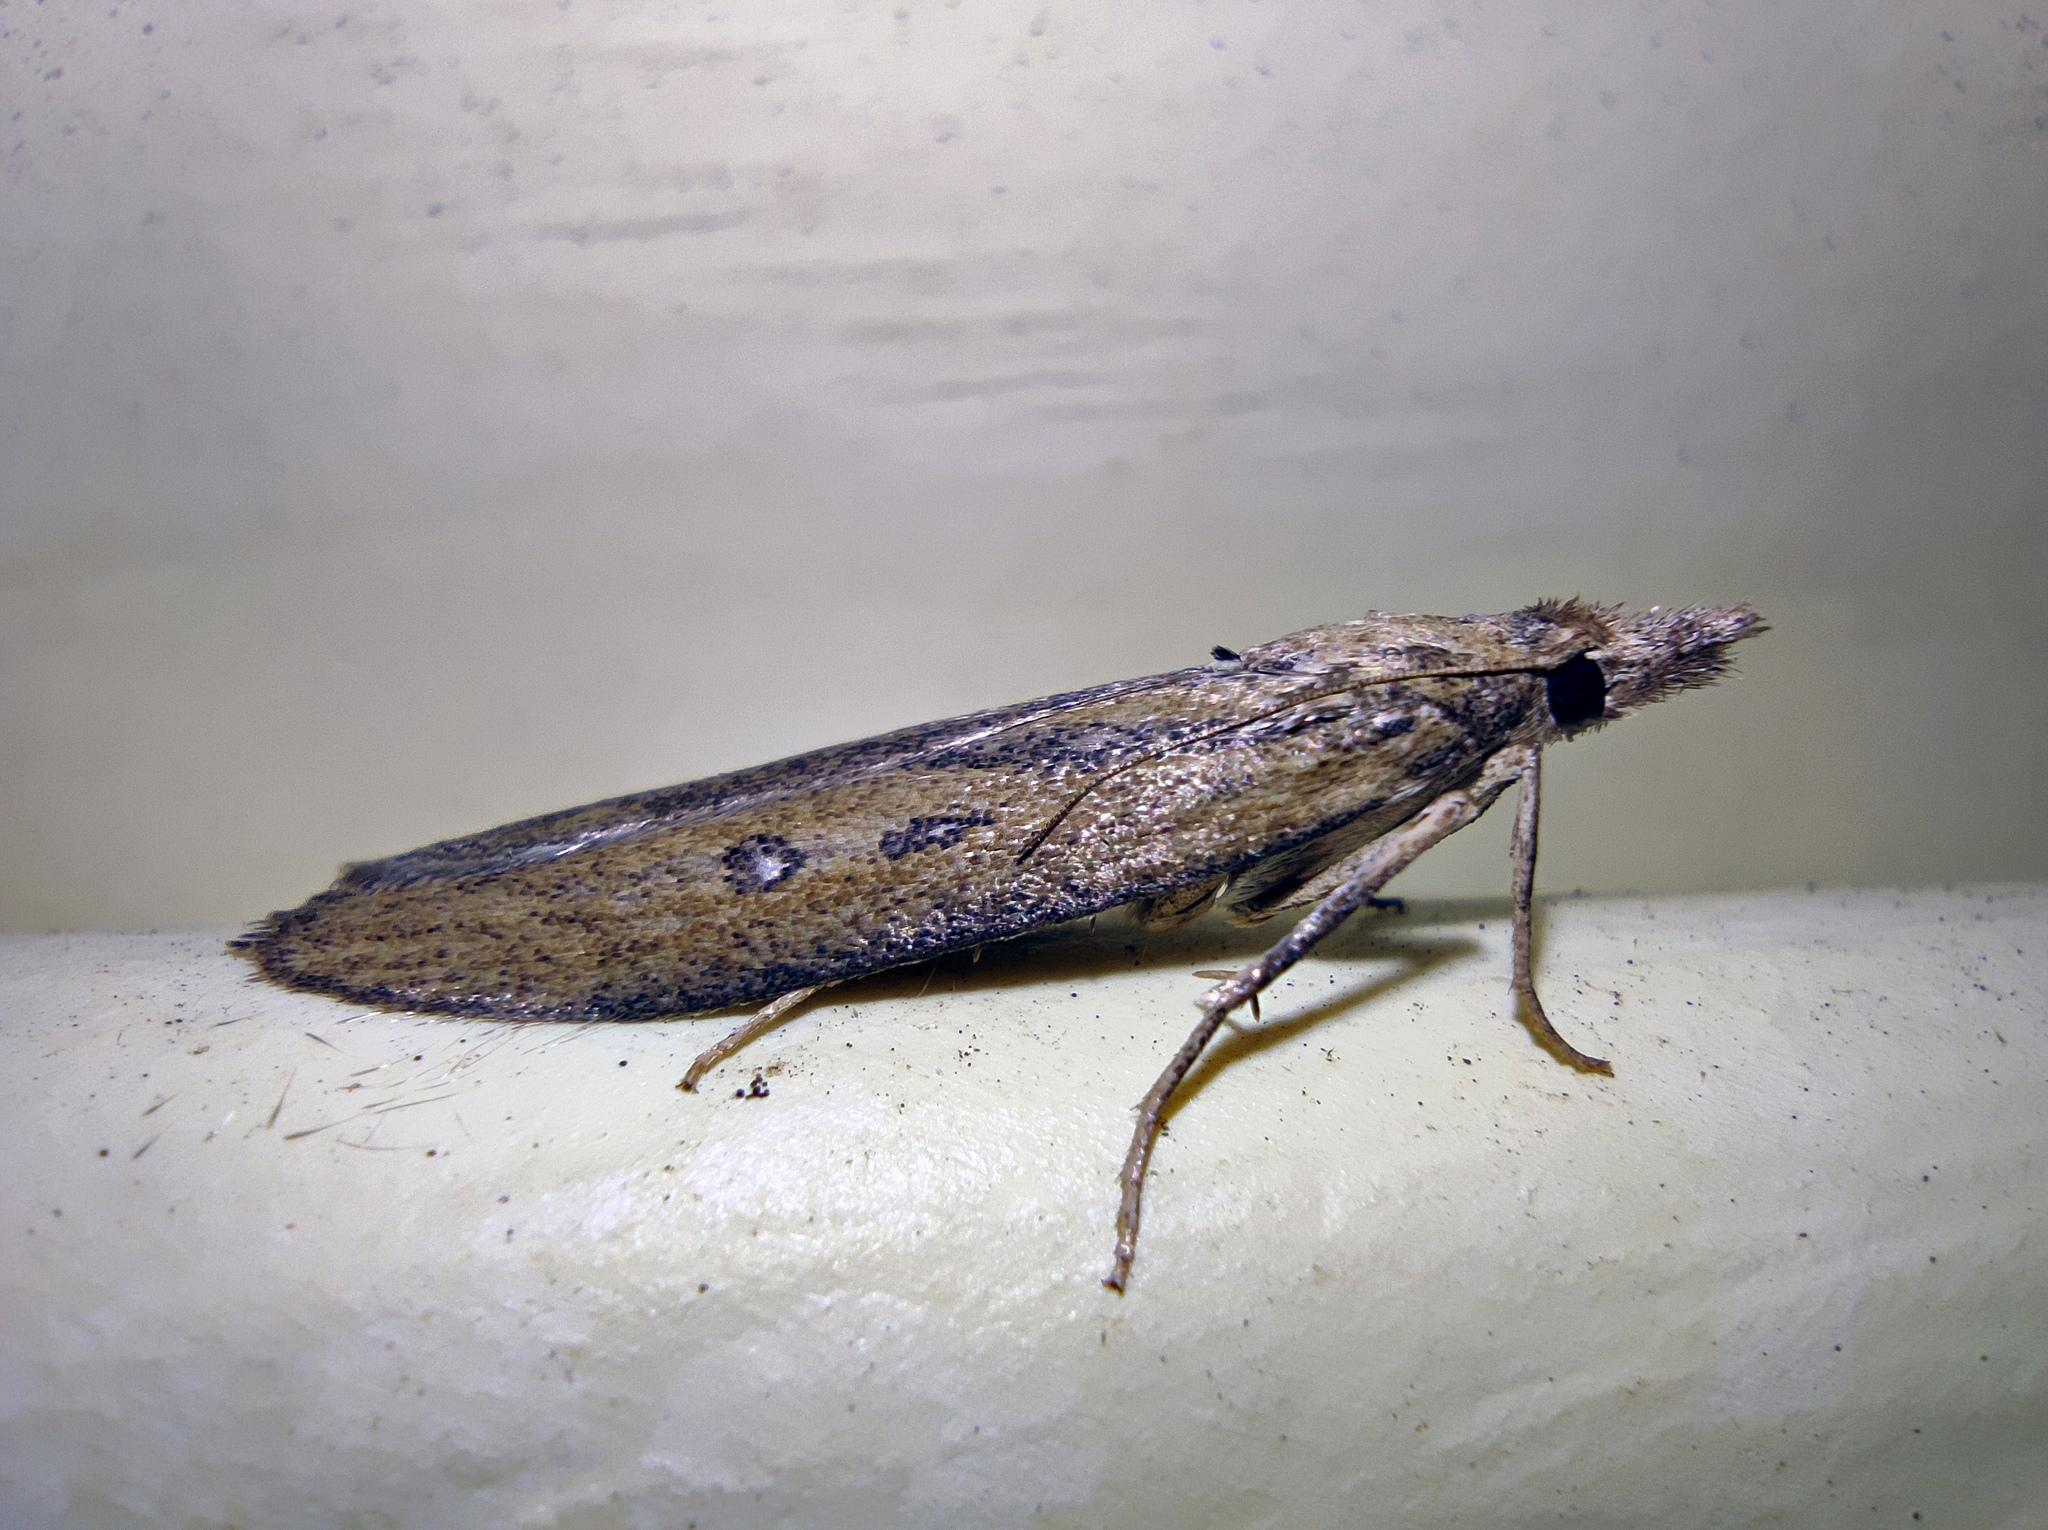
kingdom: Animalia
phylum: Arthropoda
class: Insecta
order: Lepidoptera
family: Pyralidae
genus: Aphomia
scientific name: Aphomia zelleri
